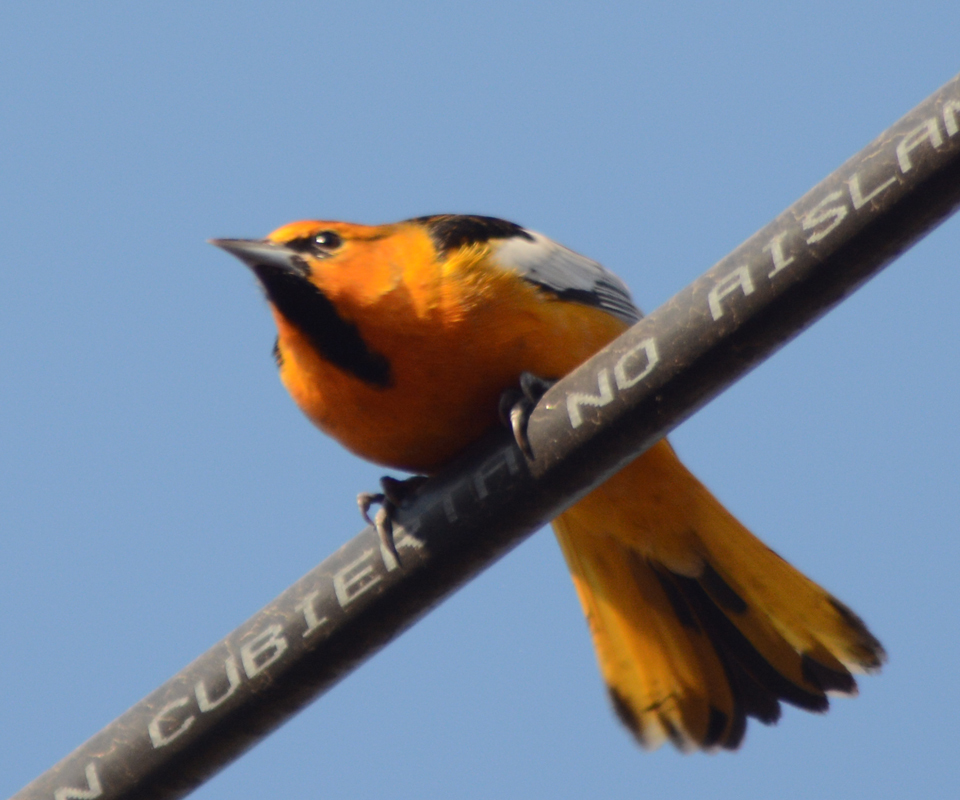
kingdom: Animalia
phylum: Chordata
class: Aves
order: Passeriformes
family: Icteridae
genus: Icterus
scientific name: Icterus bullockii
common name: Bullock's oriole
